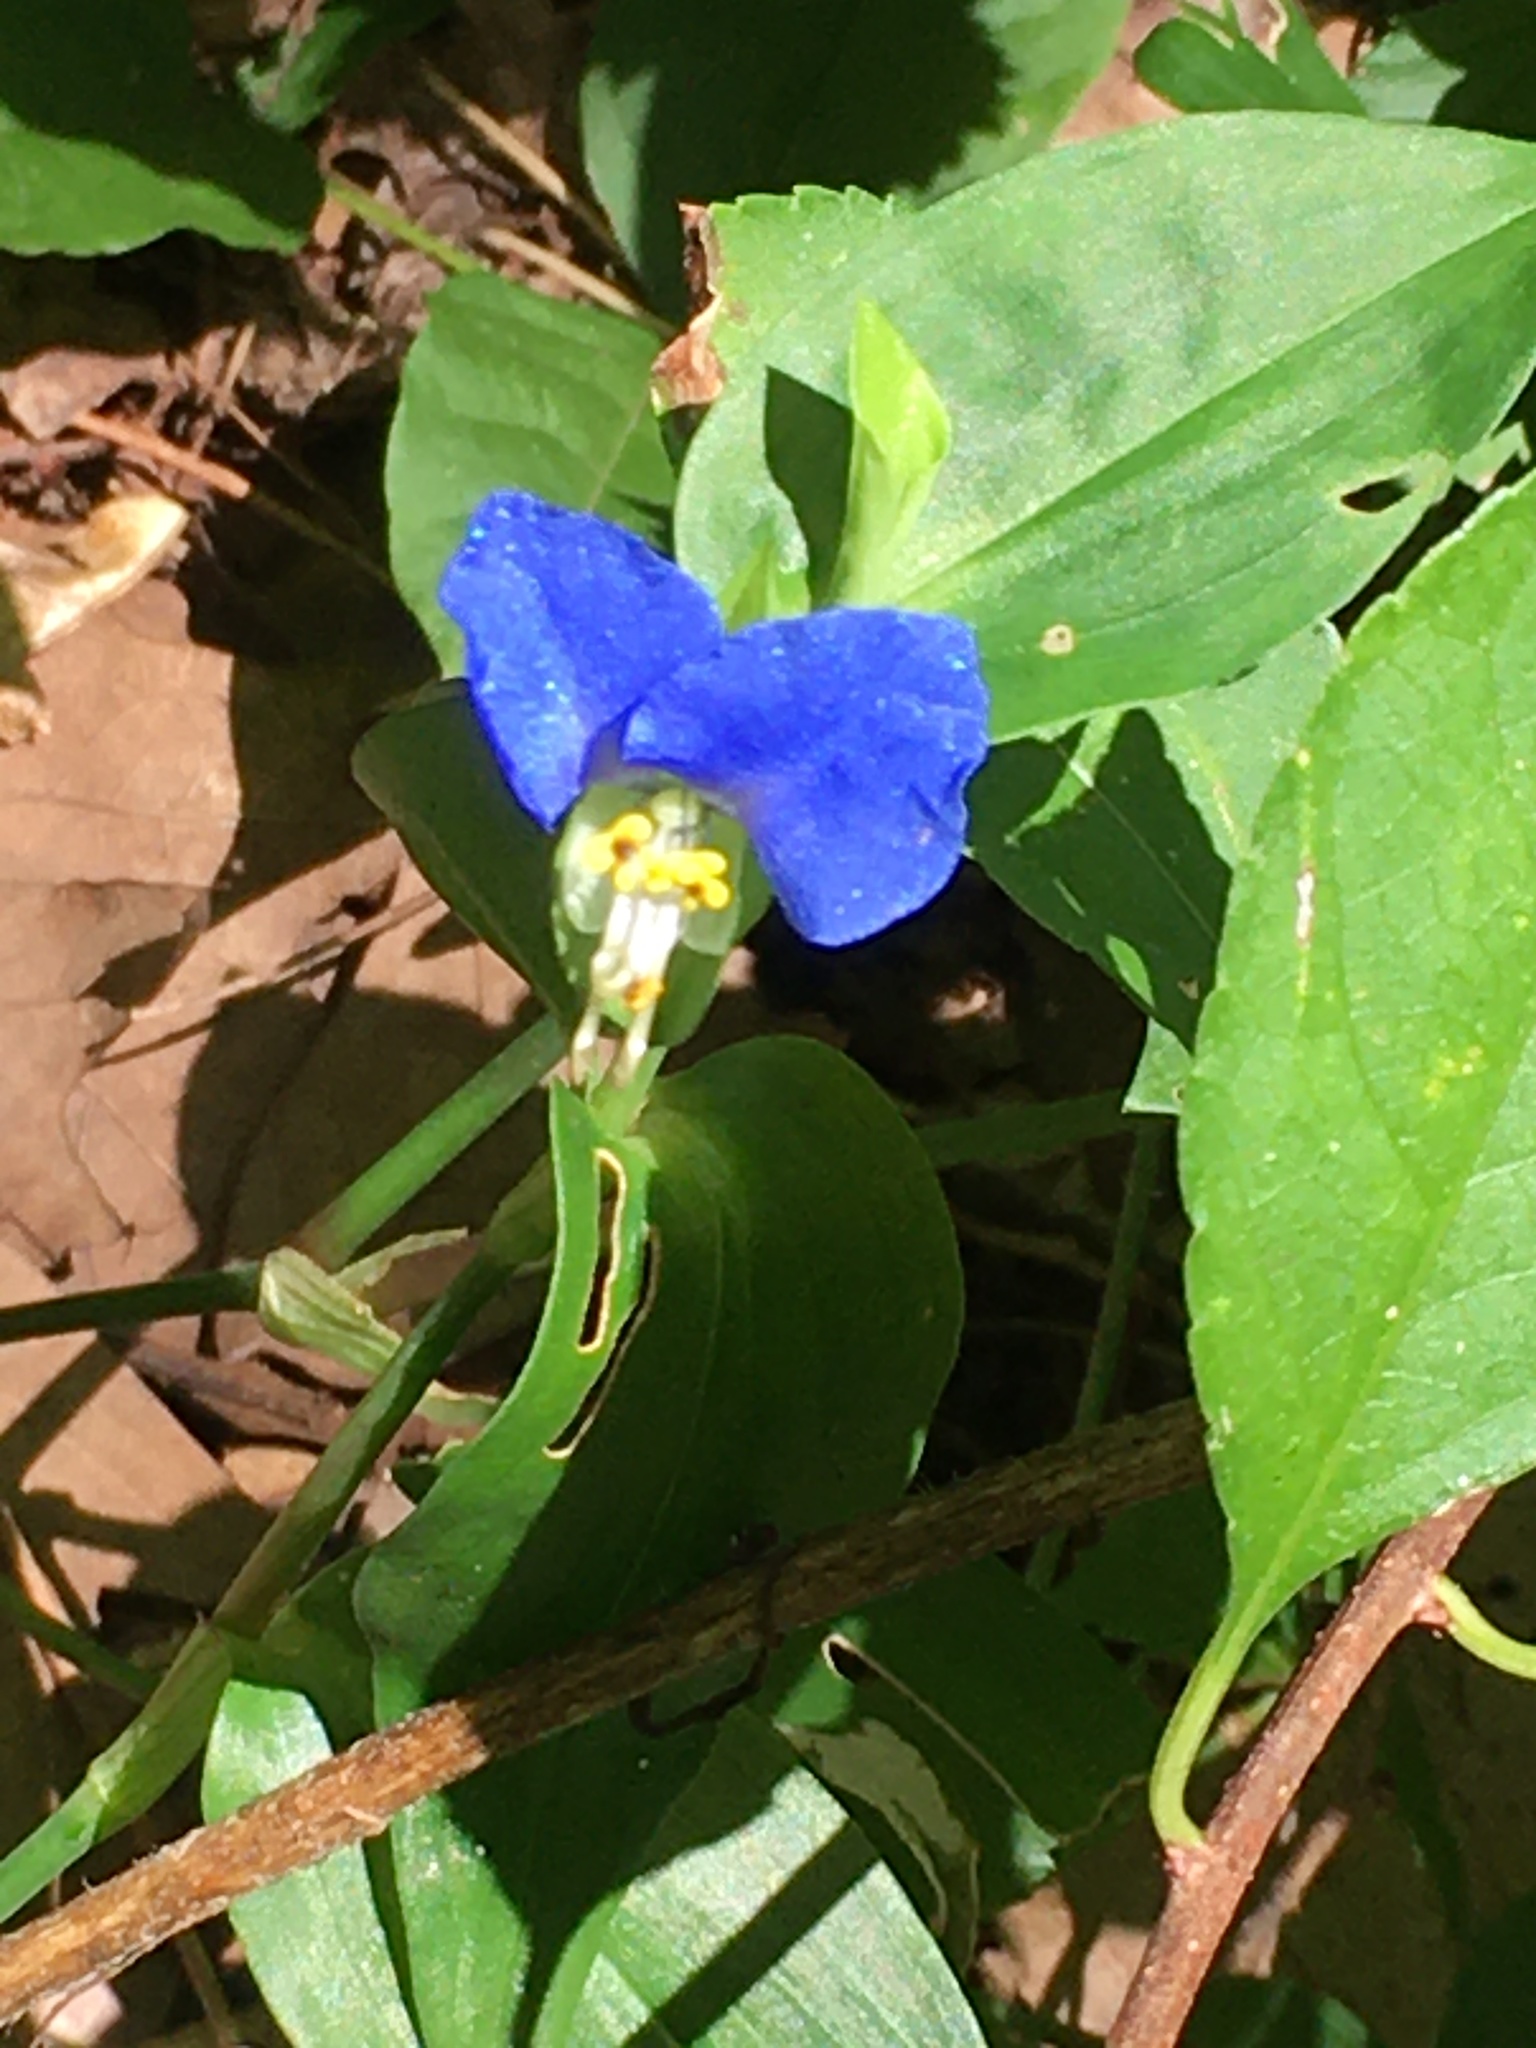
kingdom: Plantae
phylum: Tracheophyta
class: Liliopsida
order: Commelinales
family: Commelinaceae
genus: Commelina
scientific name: Commelina communis
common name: Asiatic dayflower
